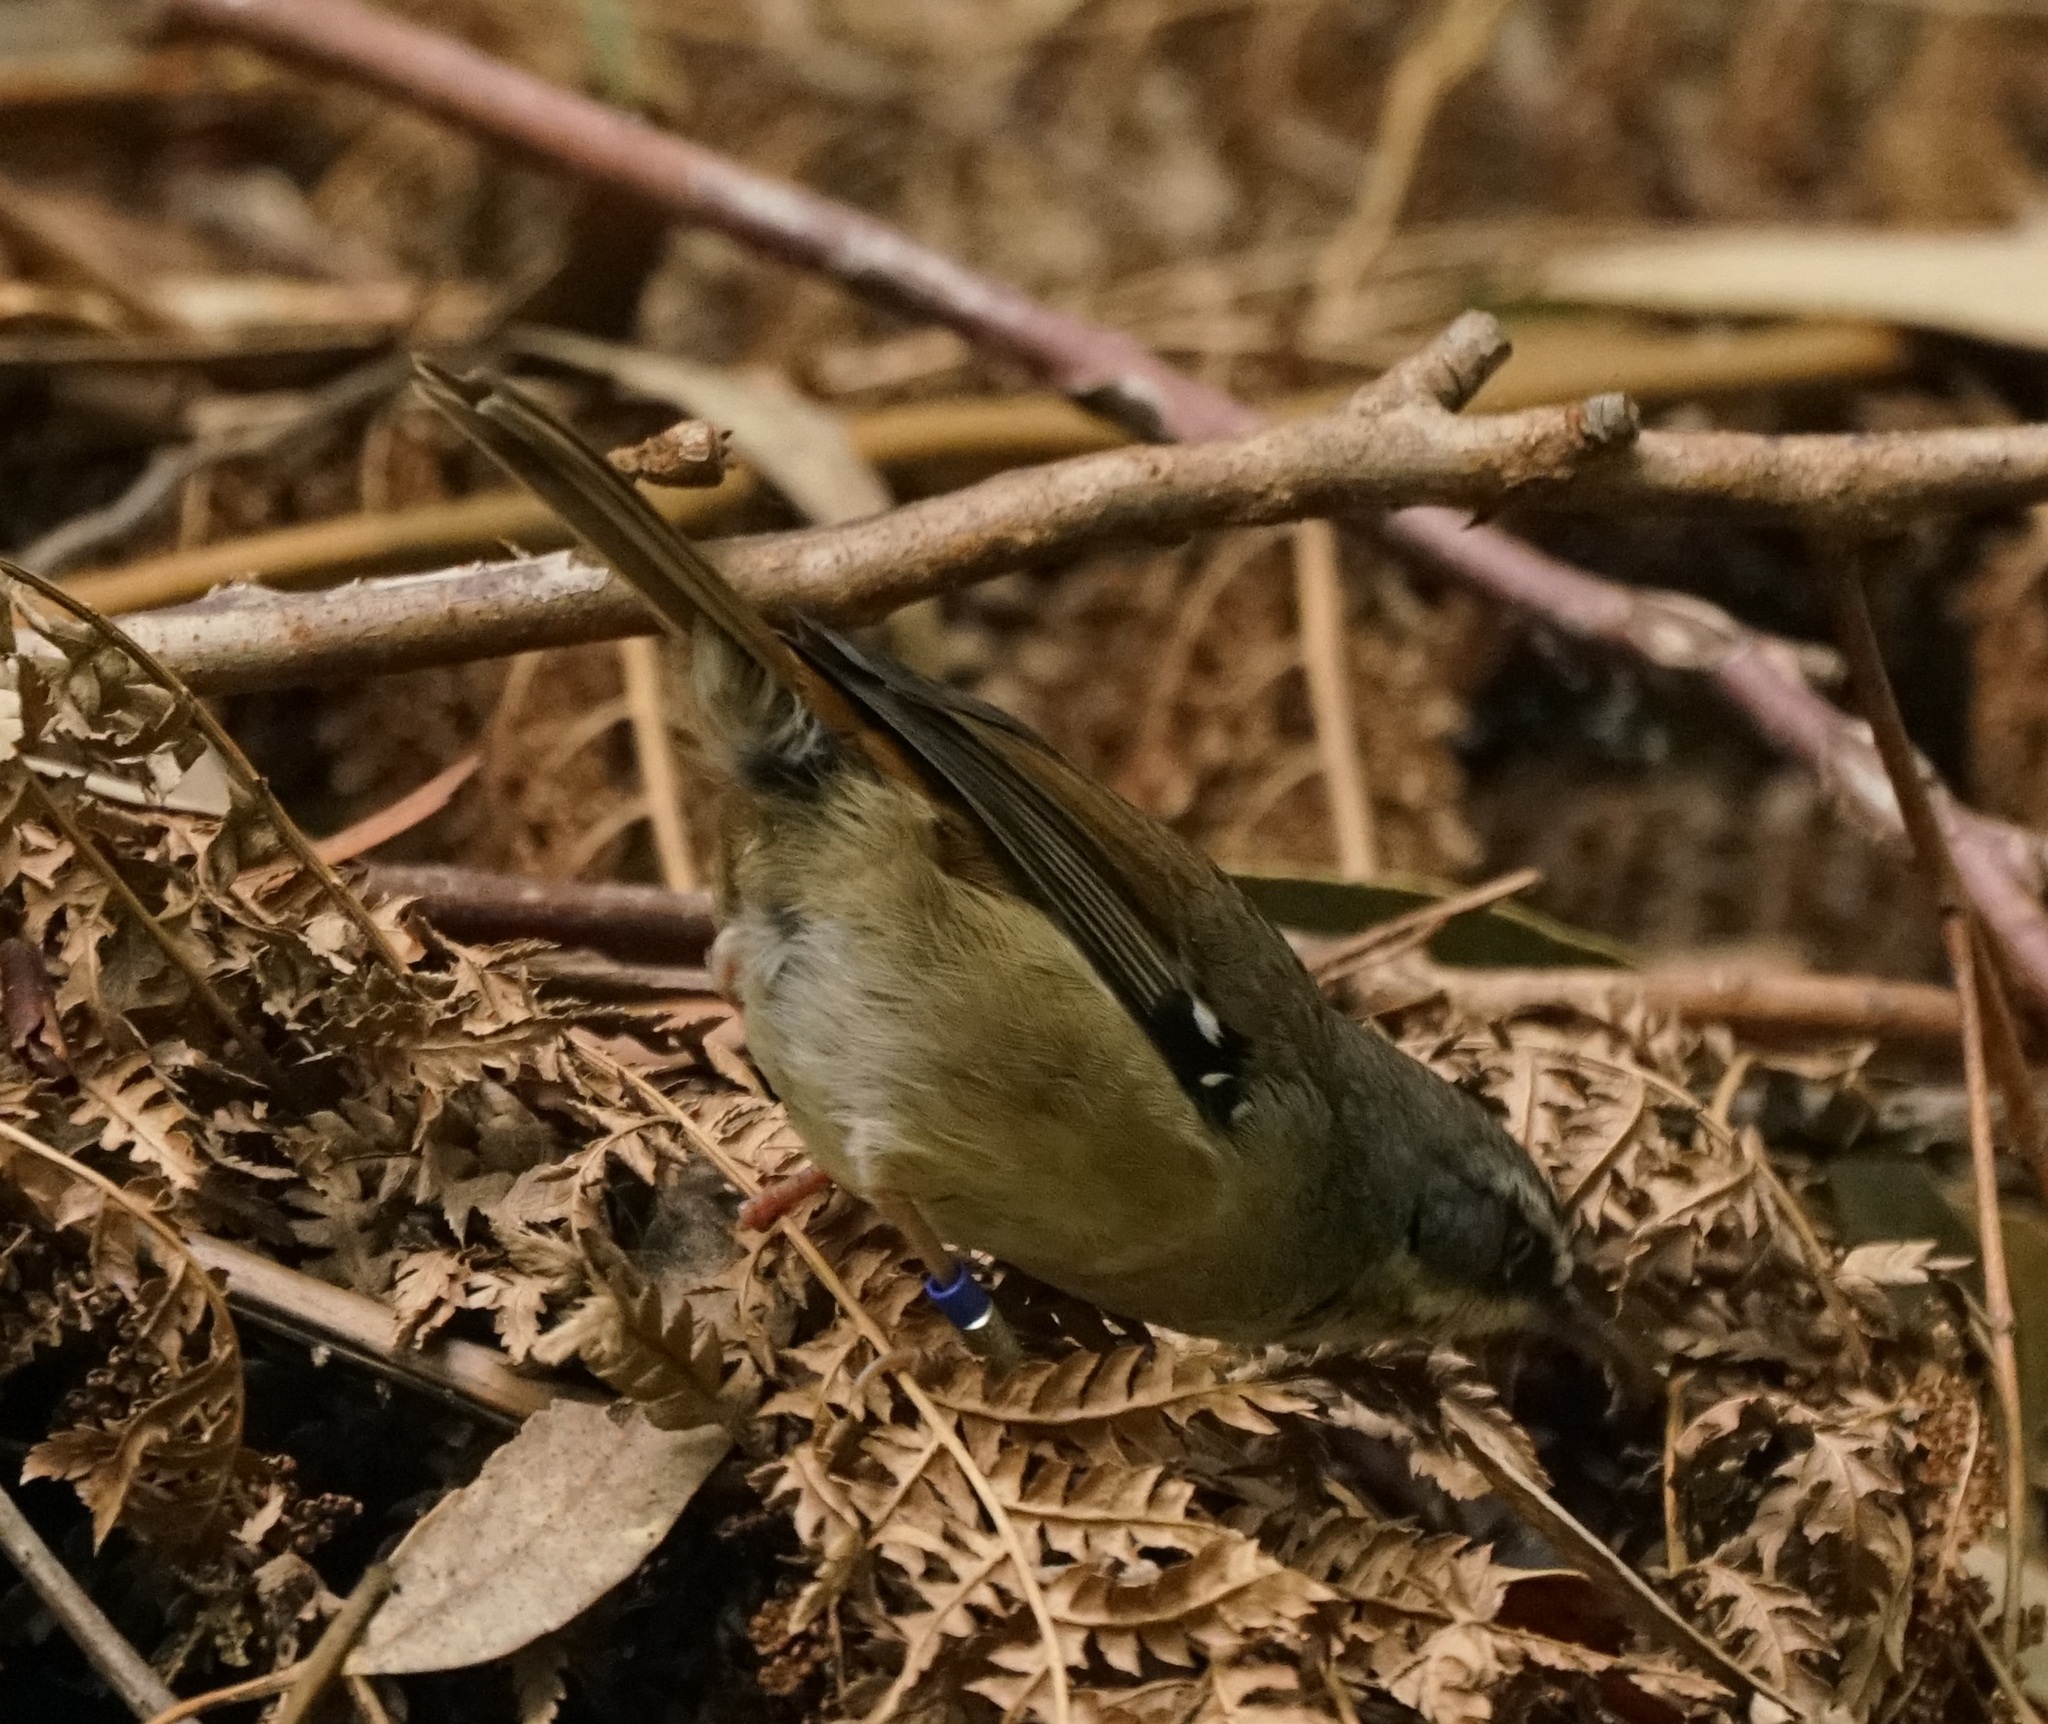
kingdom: Animalia
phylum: Chordata
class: Aves
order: Passeriformes
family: Acanthizidae
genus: Sericornis
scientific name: Sericornis frontalis
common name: White-browed scrubwren
